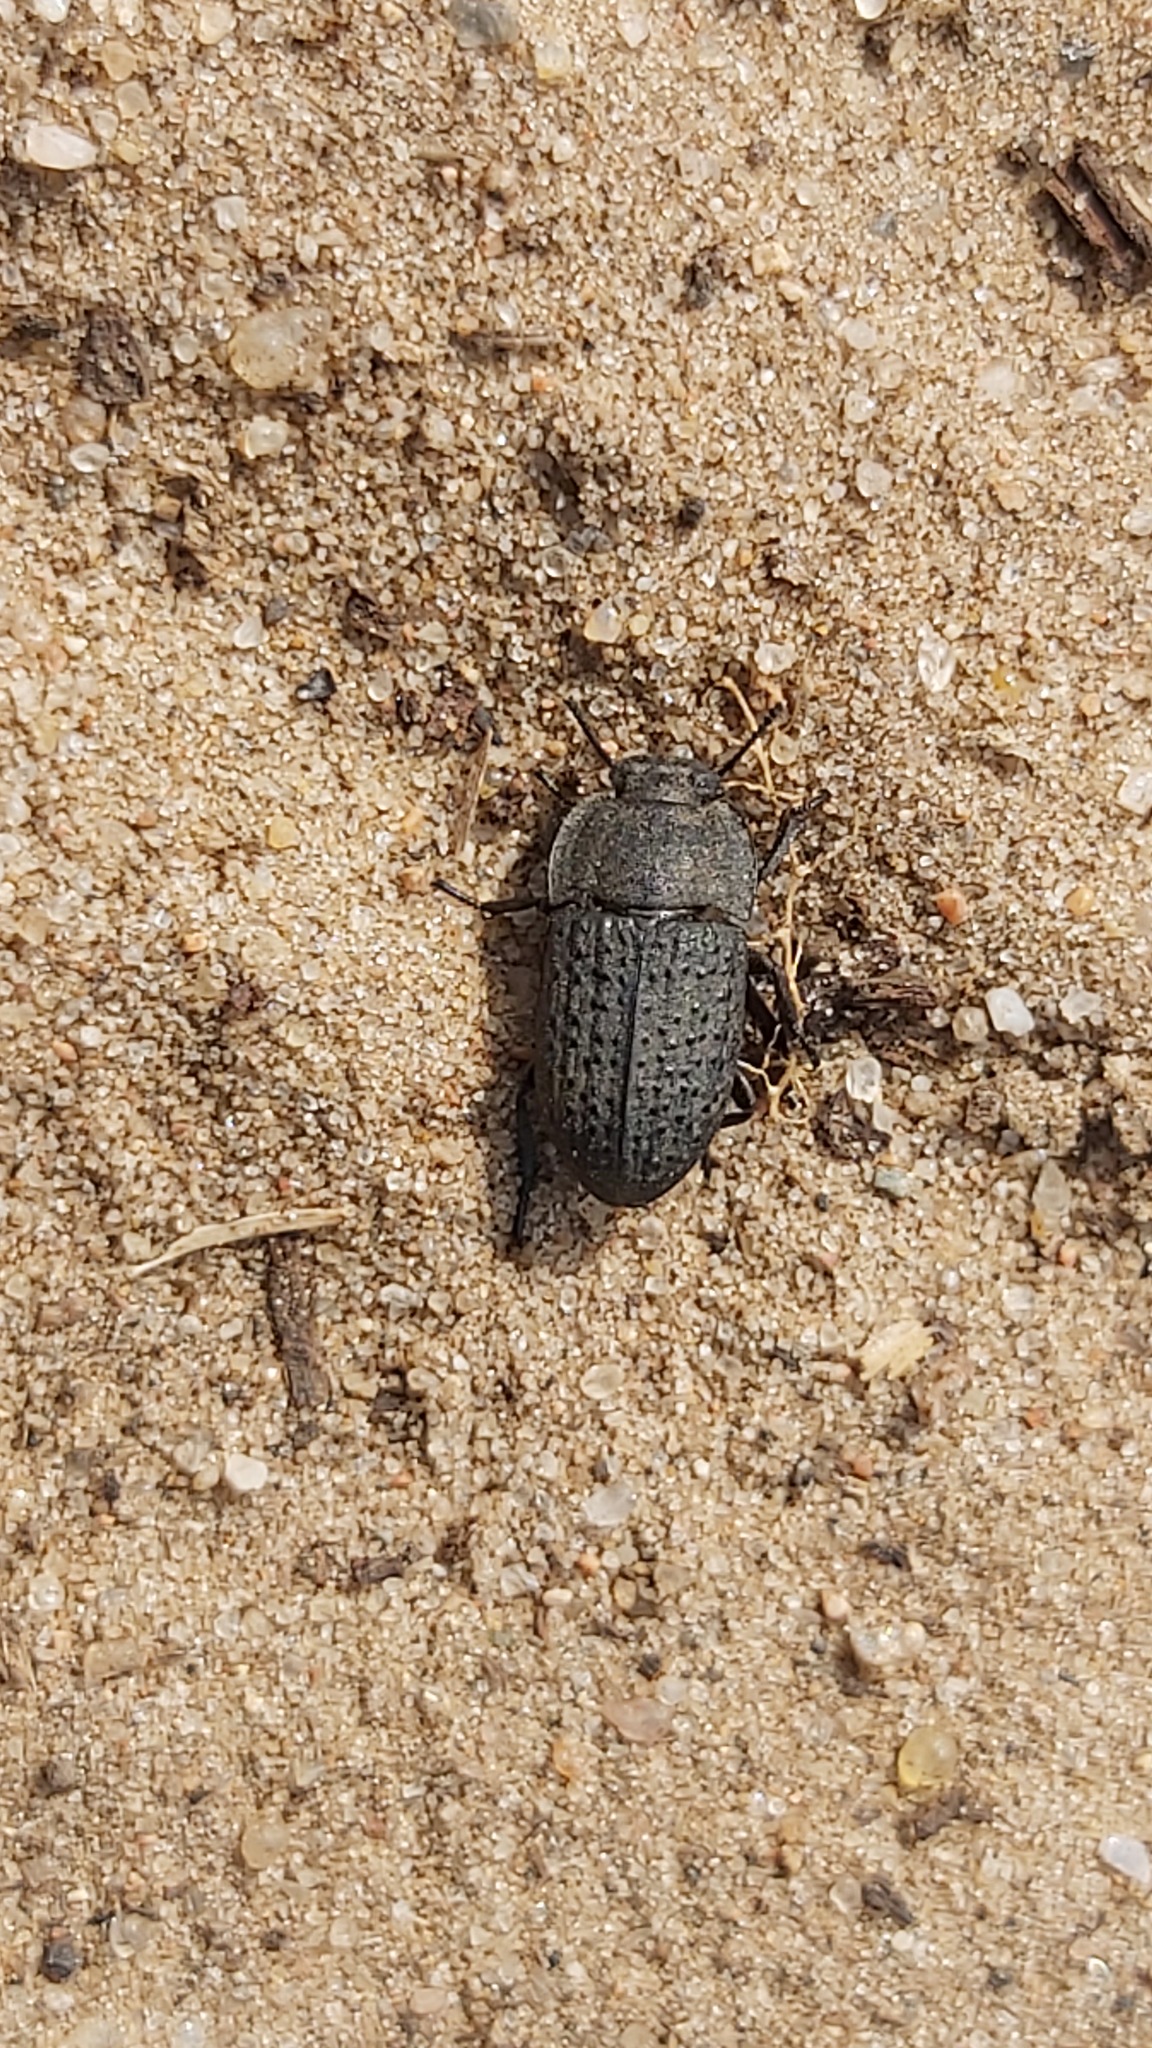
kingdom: Animalia
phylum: Arthropoda
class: Insecta
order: Coleoptera
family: Tenebrionidae
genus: Opatrum
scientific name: Opatrum sabulosum
